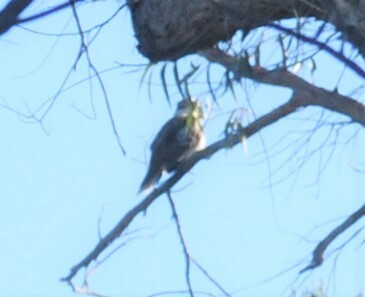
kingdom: Animalia
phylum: Chordata
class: Aves
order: Coraciiformes
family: Alcedinidae
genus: Dacelo
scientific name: Dacelo novaeguineae
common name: Laughing kookaburra
